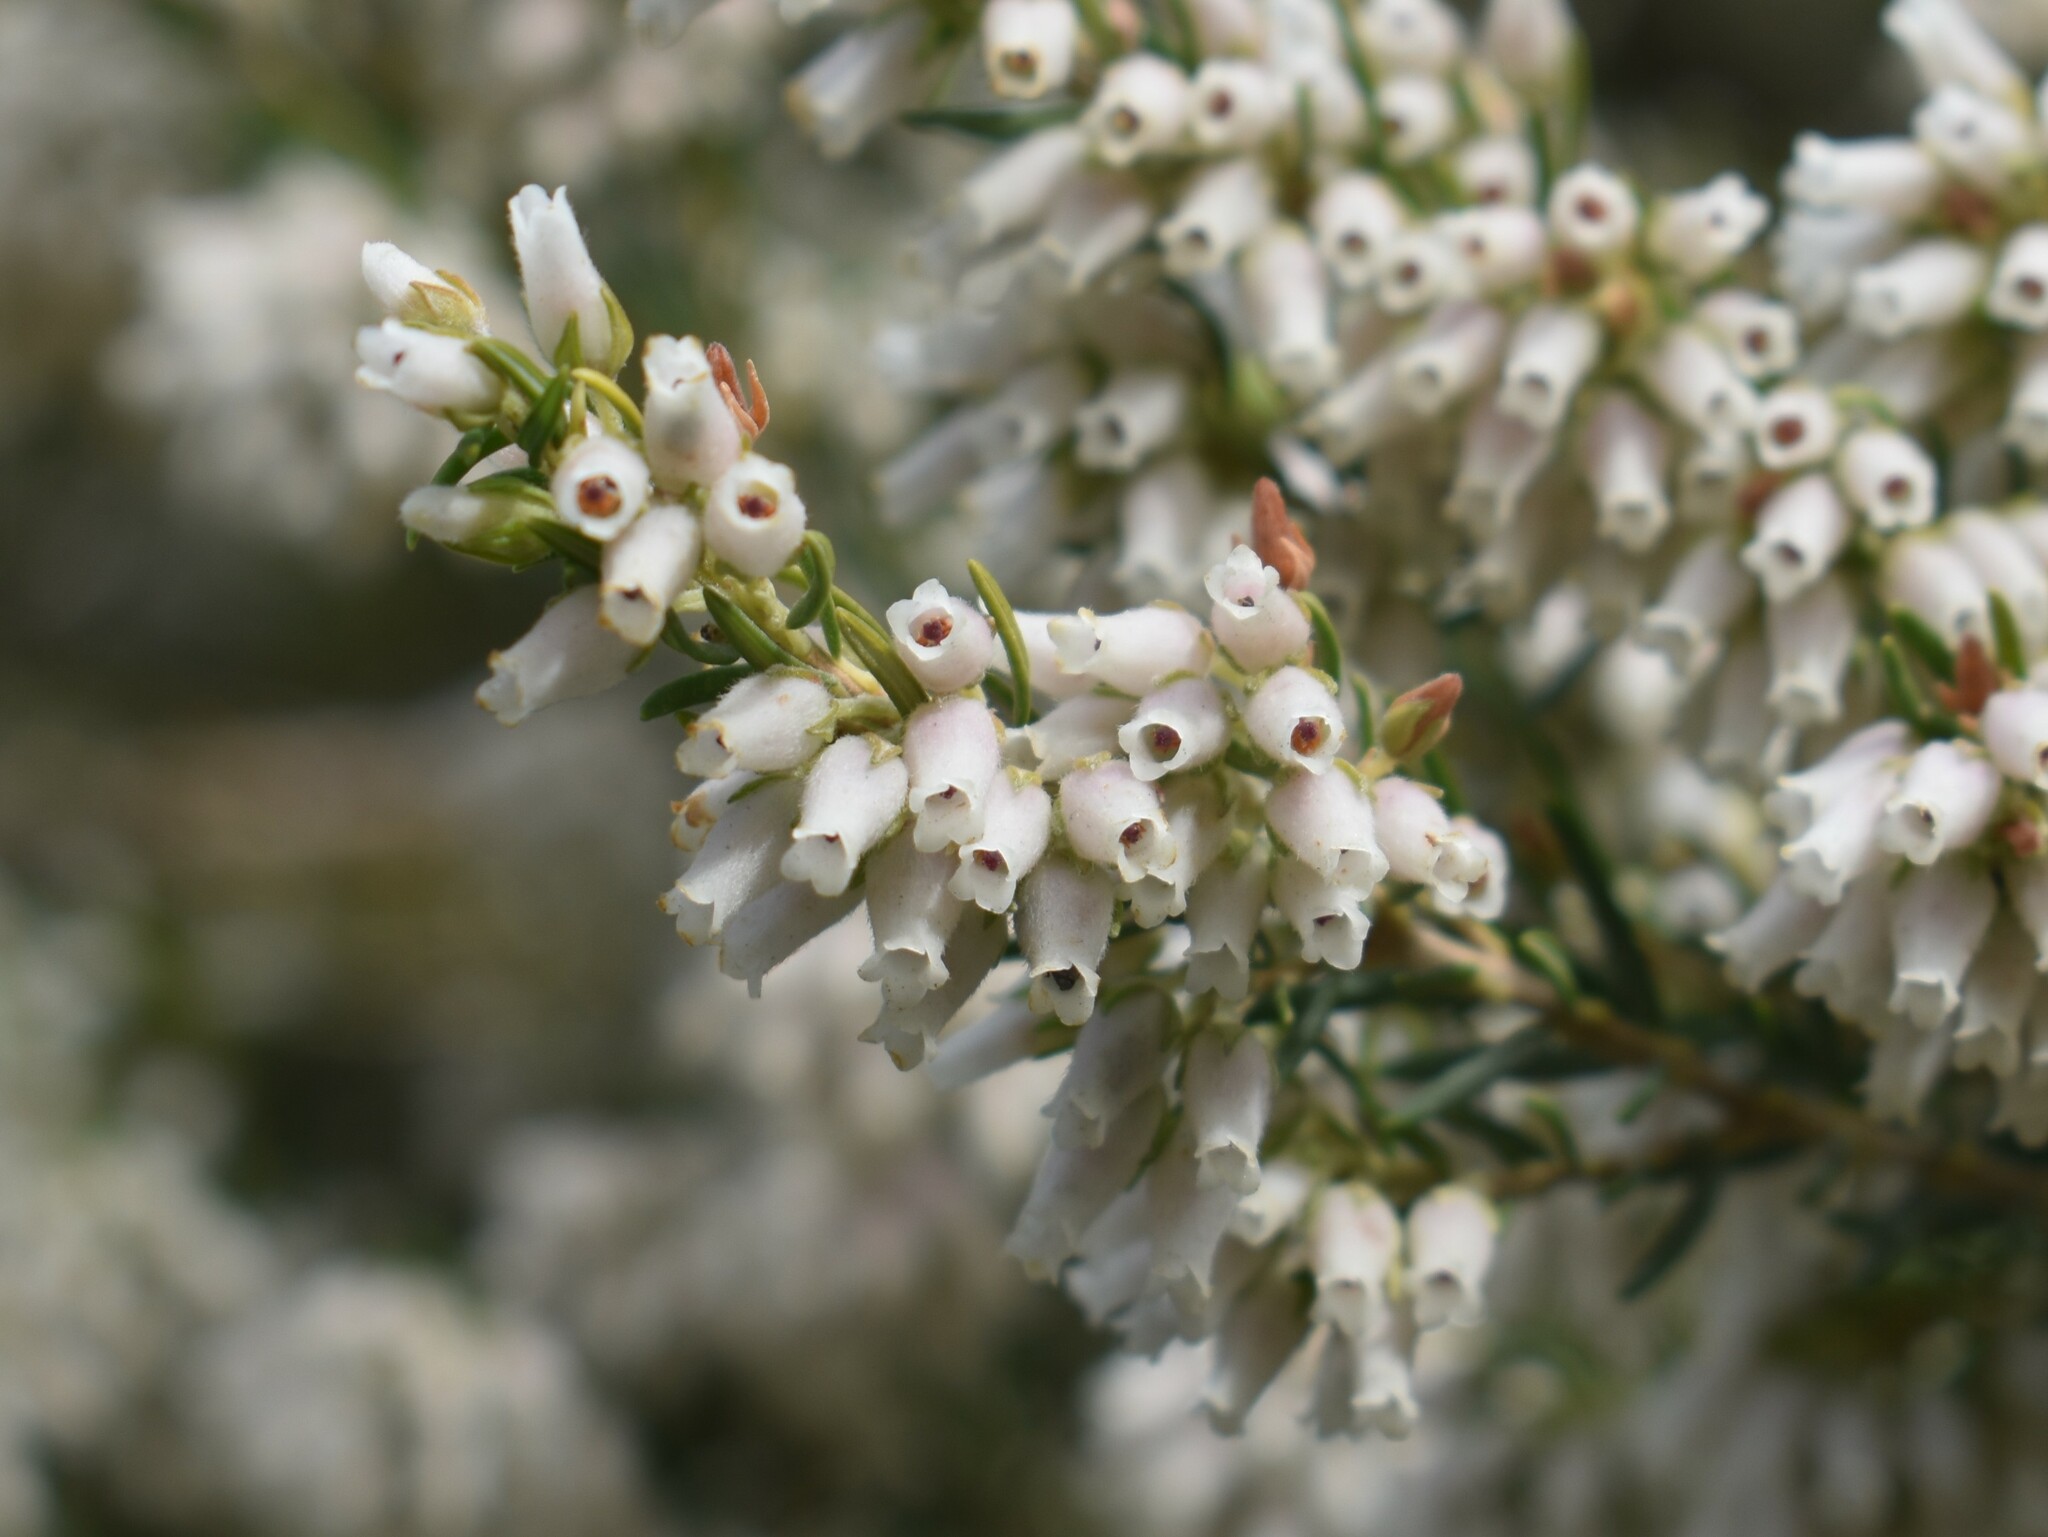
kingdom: Plantae
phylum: Tracheophyta
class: Magnoliopsida
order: Ericales
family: Ericaceae
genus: Erica
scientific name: Erica caffra
